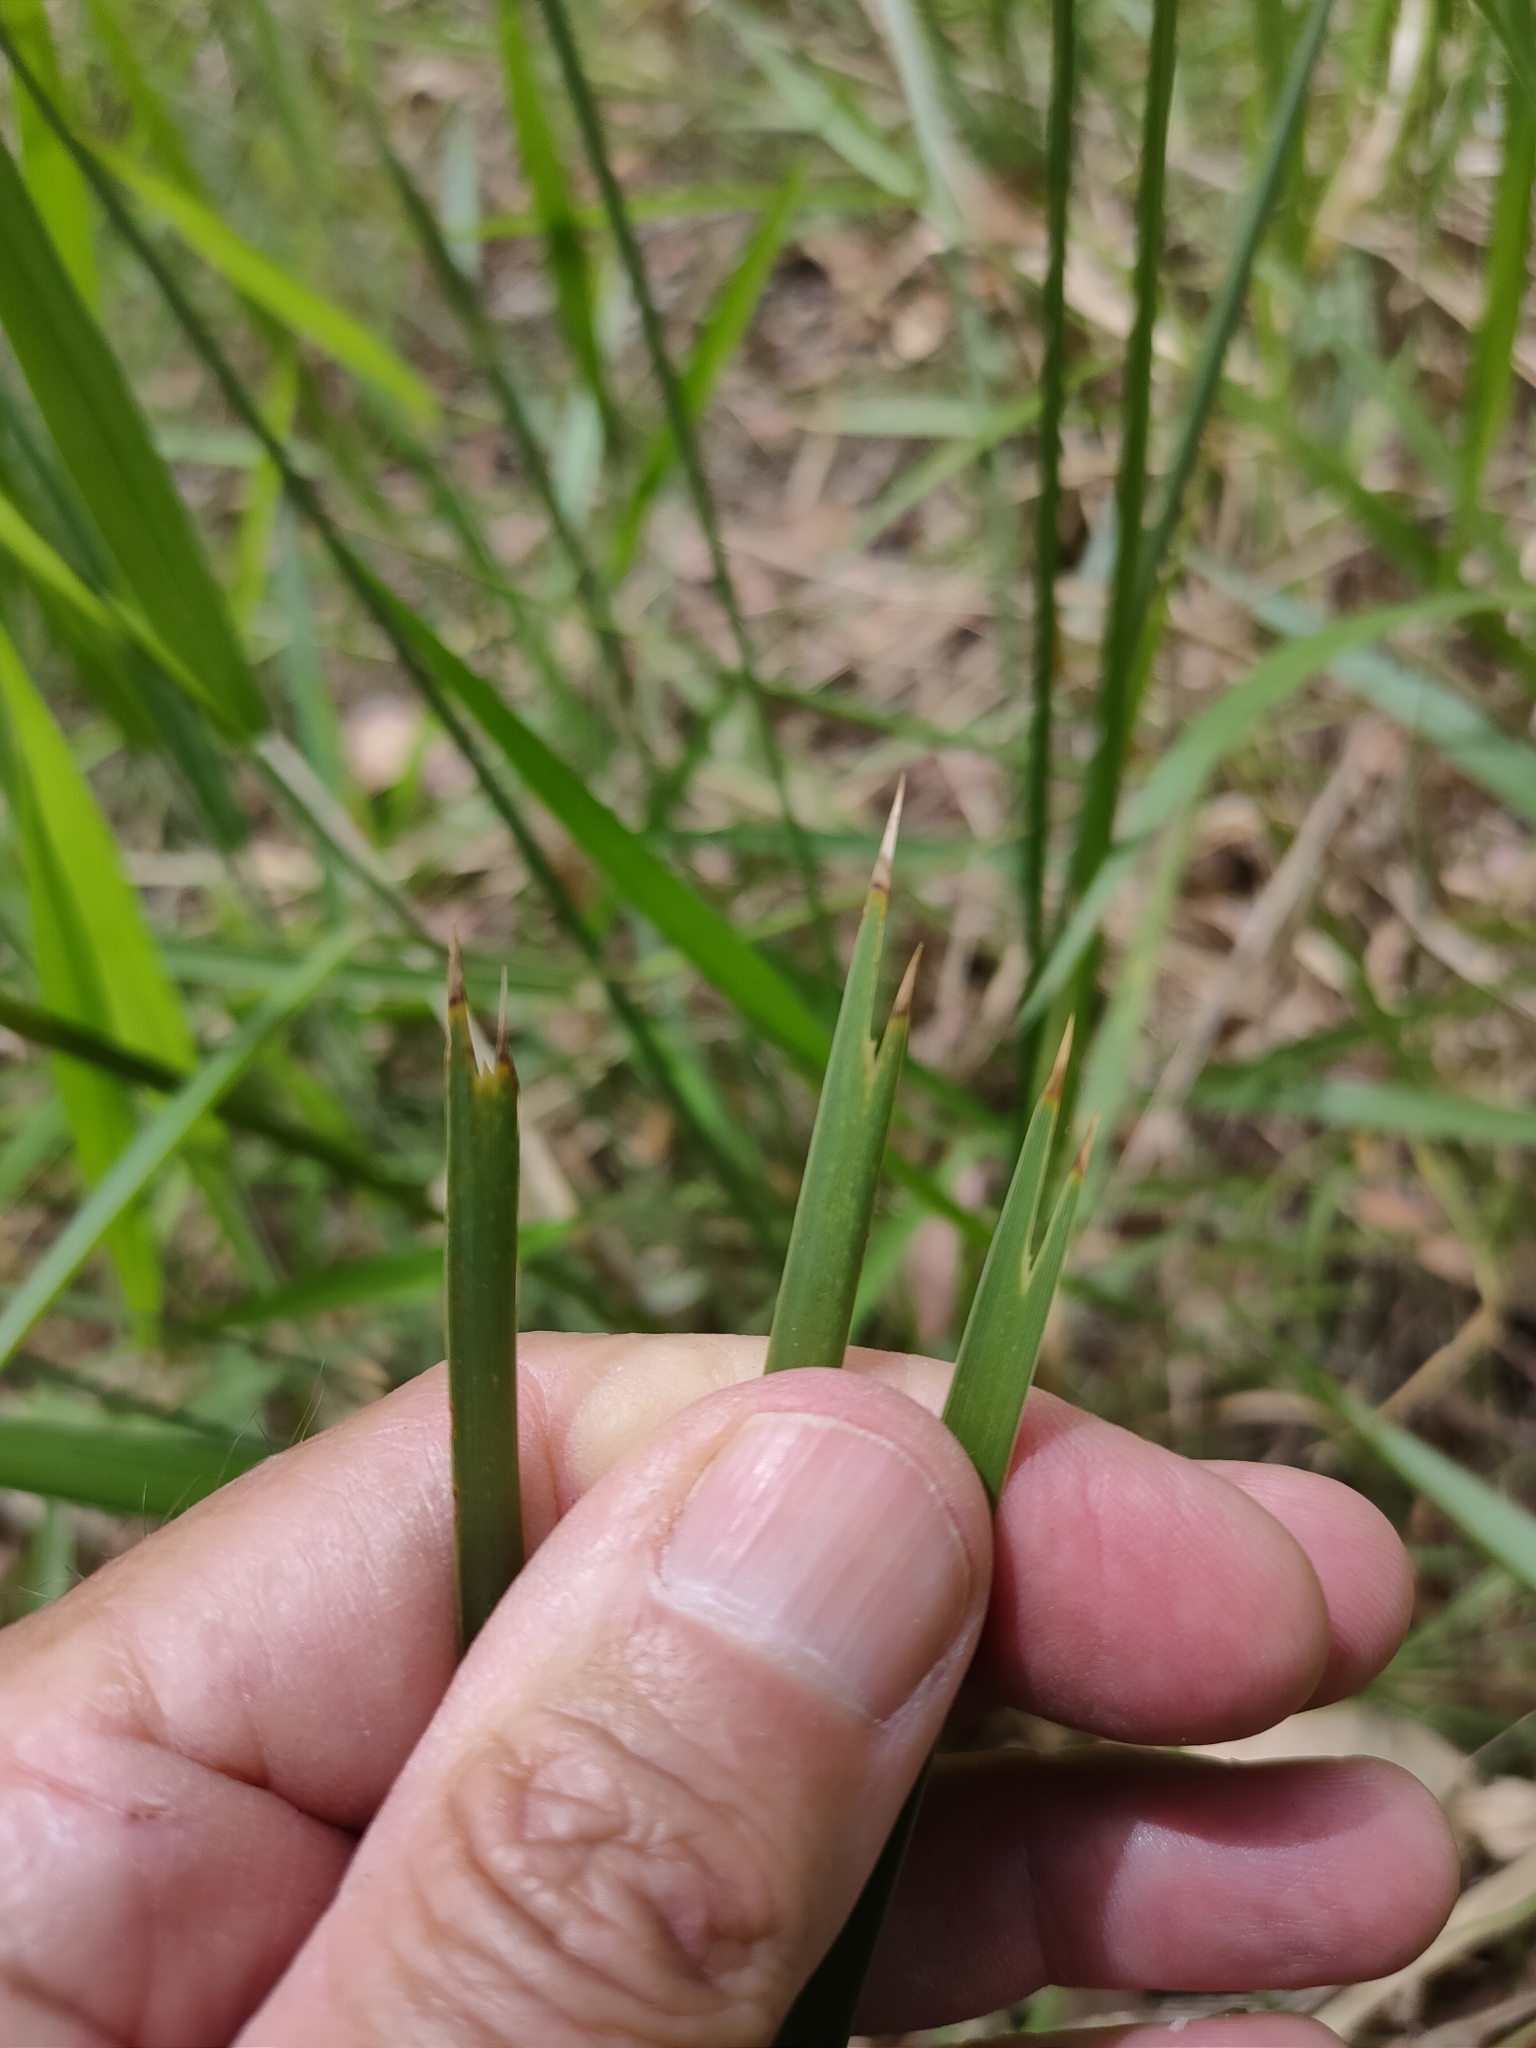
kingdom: Plantae
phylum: Tracheophyta
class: Liliopsida
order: Asparagales
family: Asparagaceae
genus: Lomandra
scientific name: Lomandra longifolia
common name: Longleaf mat-rush
